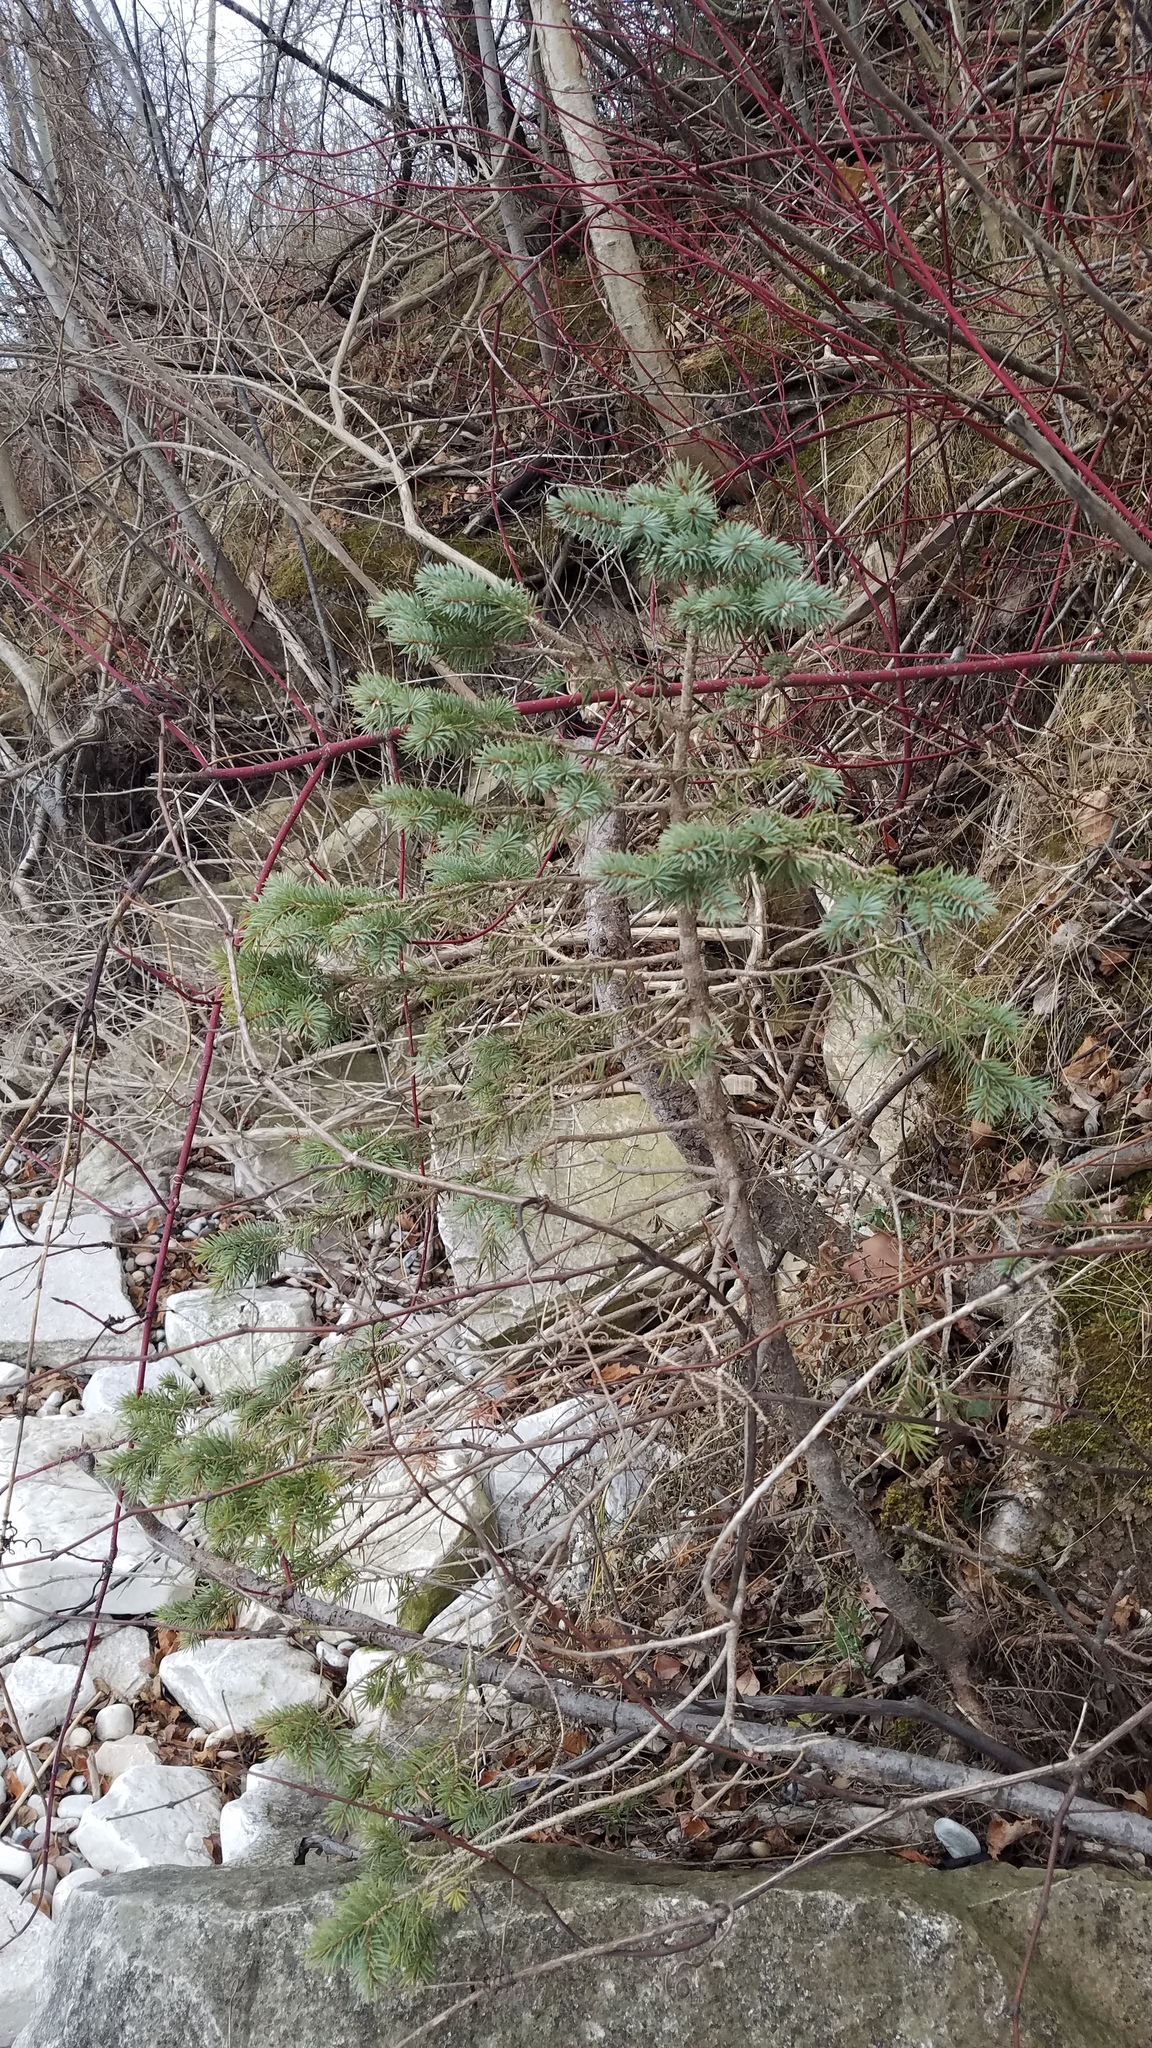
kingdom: Plantae
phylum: Tracheophyta
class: Pinopsida
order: Pinales
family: Pinaceae
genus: Picea
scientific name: Picea glauca
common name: White spruce
